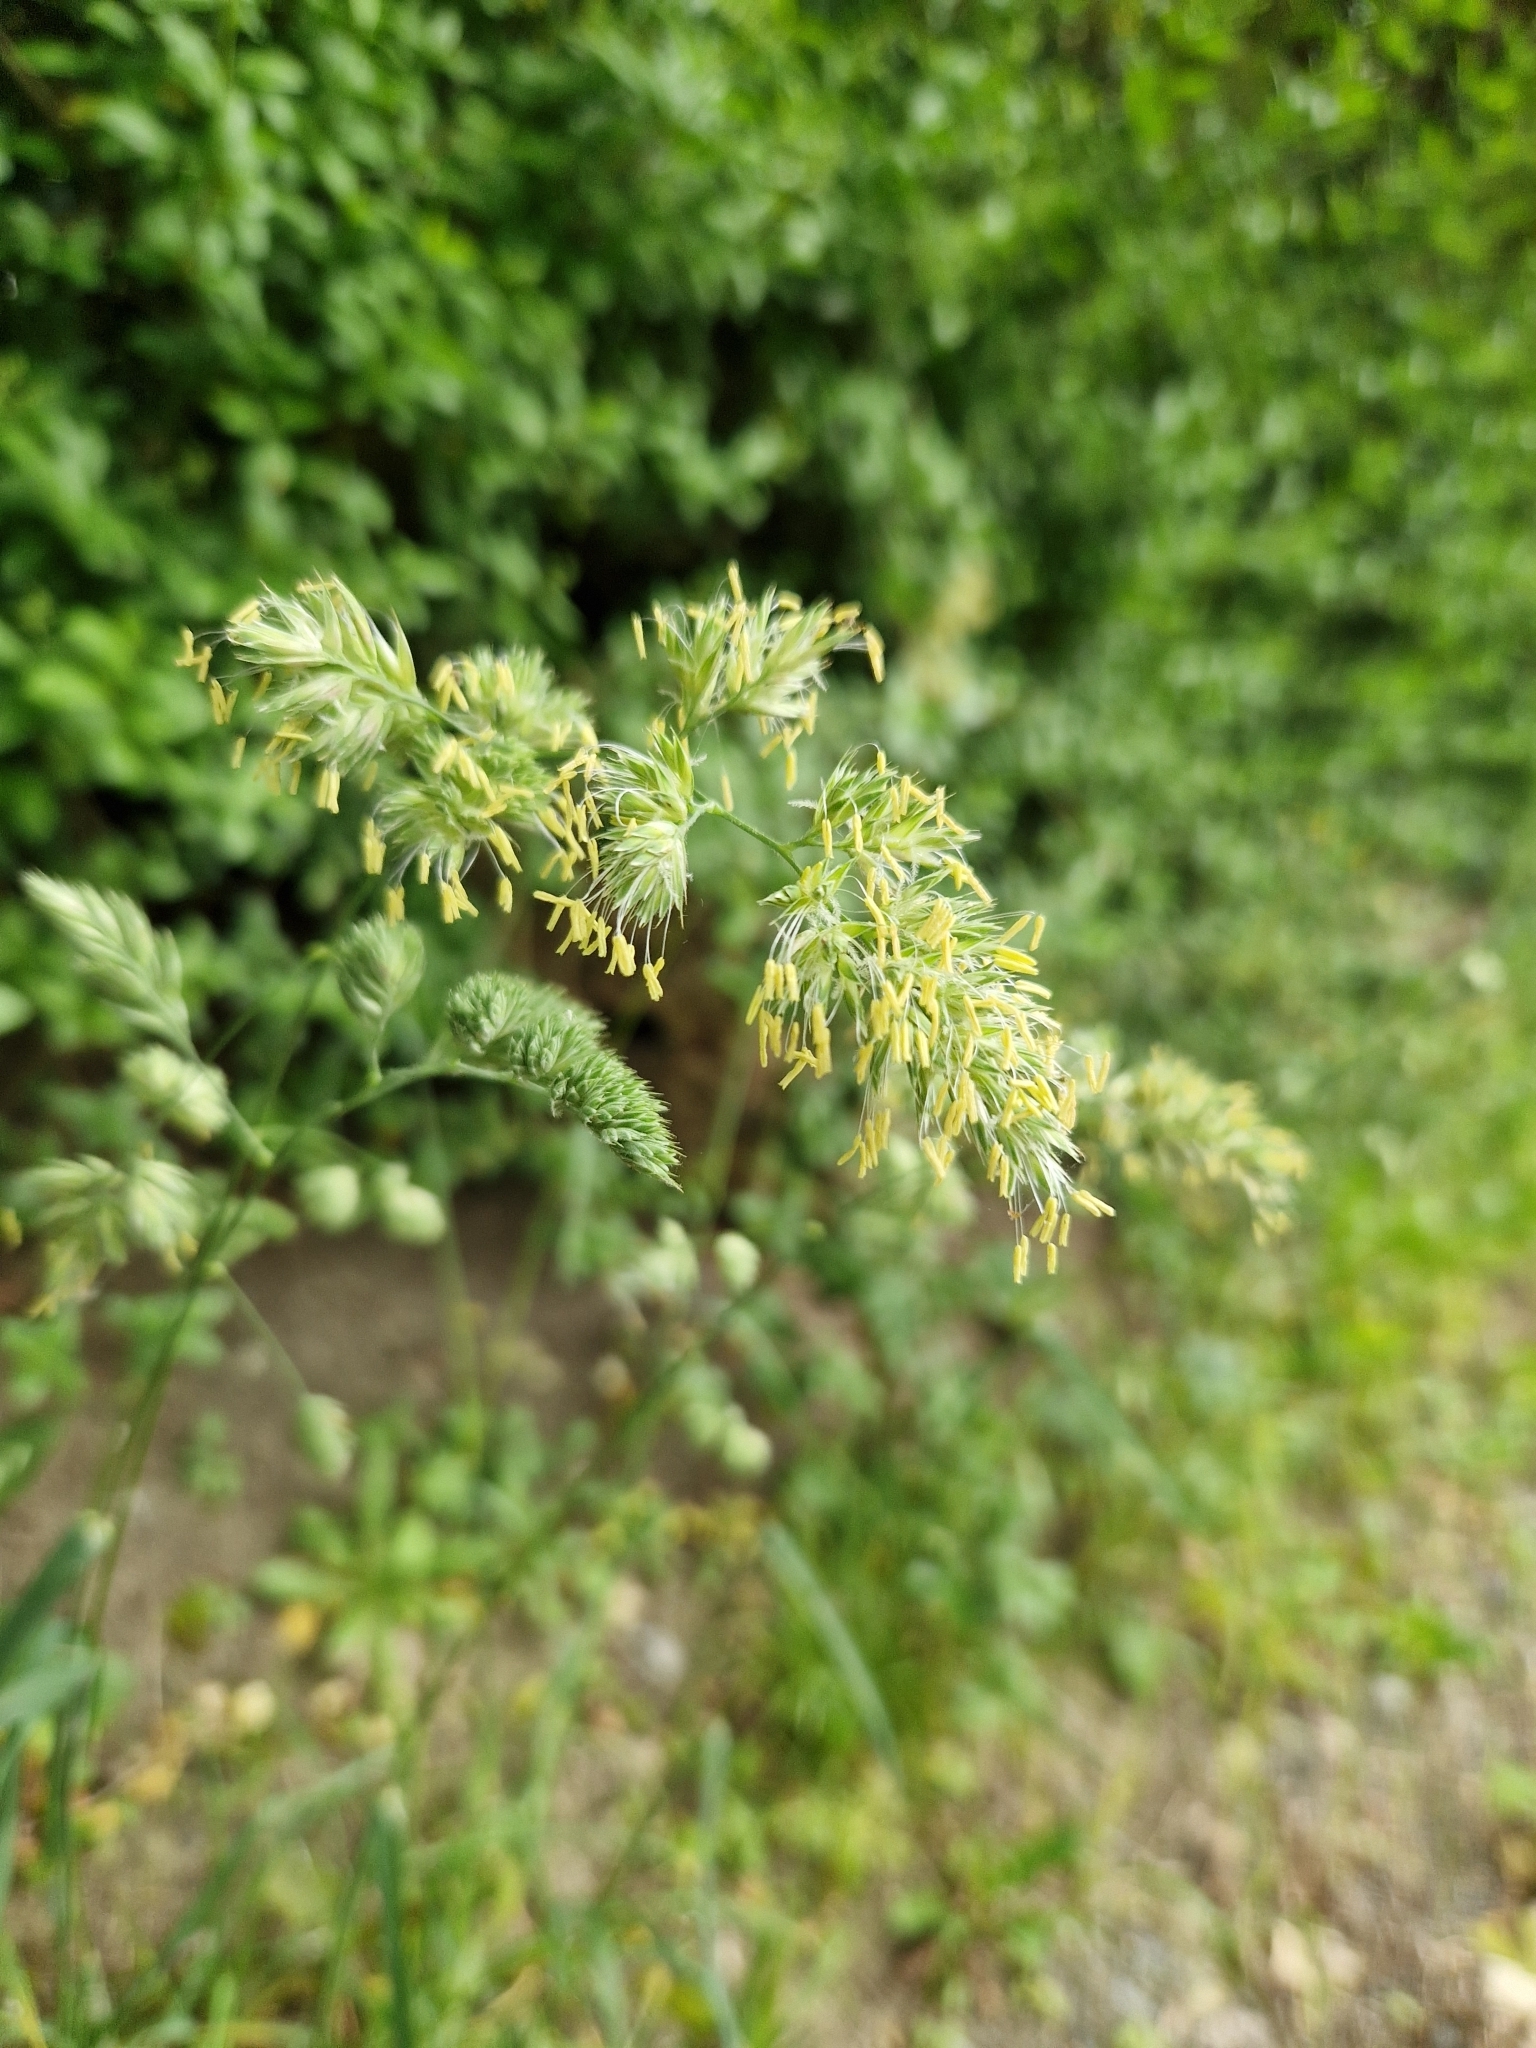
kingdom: Plantae
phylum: Tracheophyta
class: Liliopsida
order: Poales
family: Poaceae
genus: Dactylis
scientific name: Dactylis glomerata
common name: Orchardgrass
